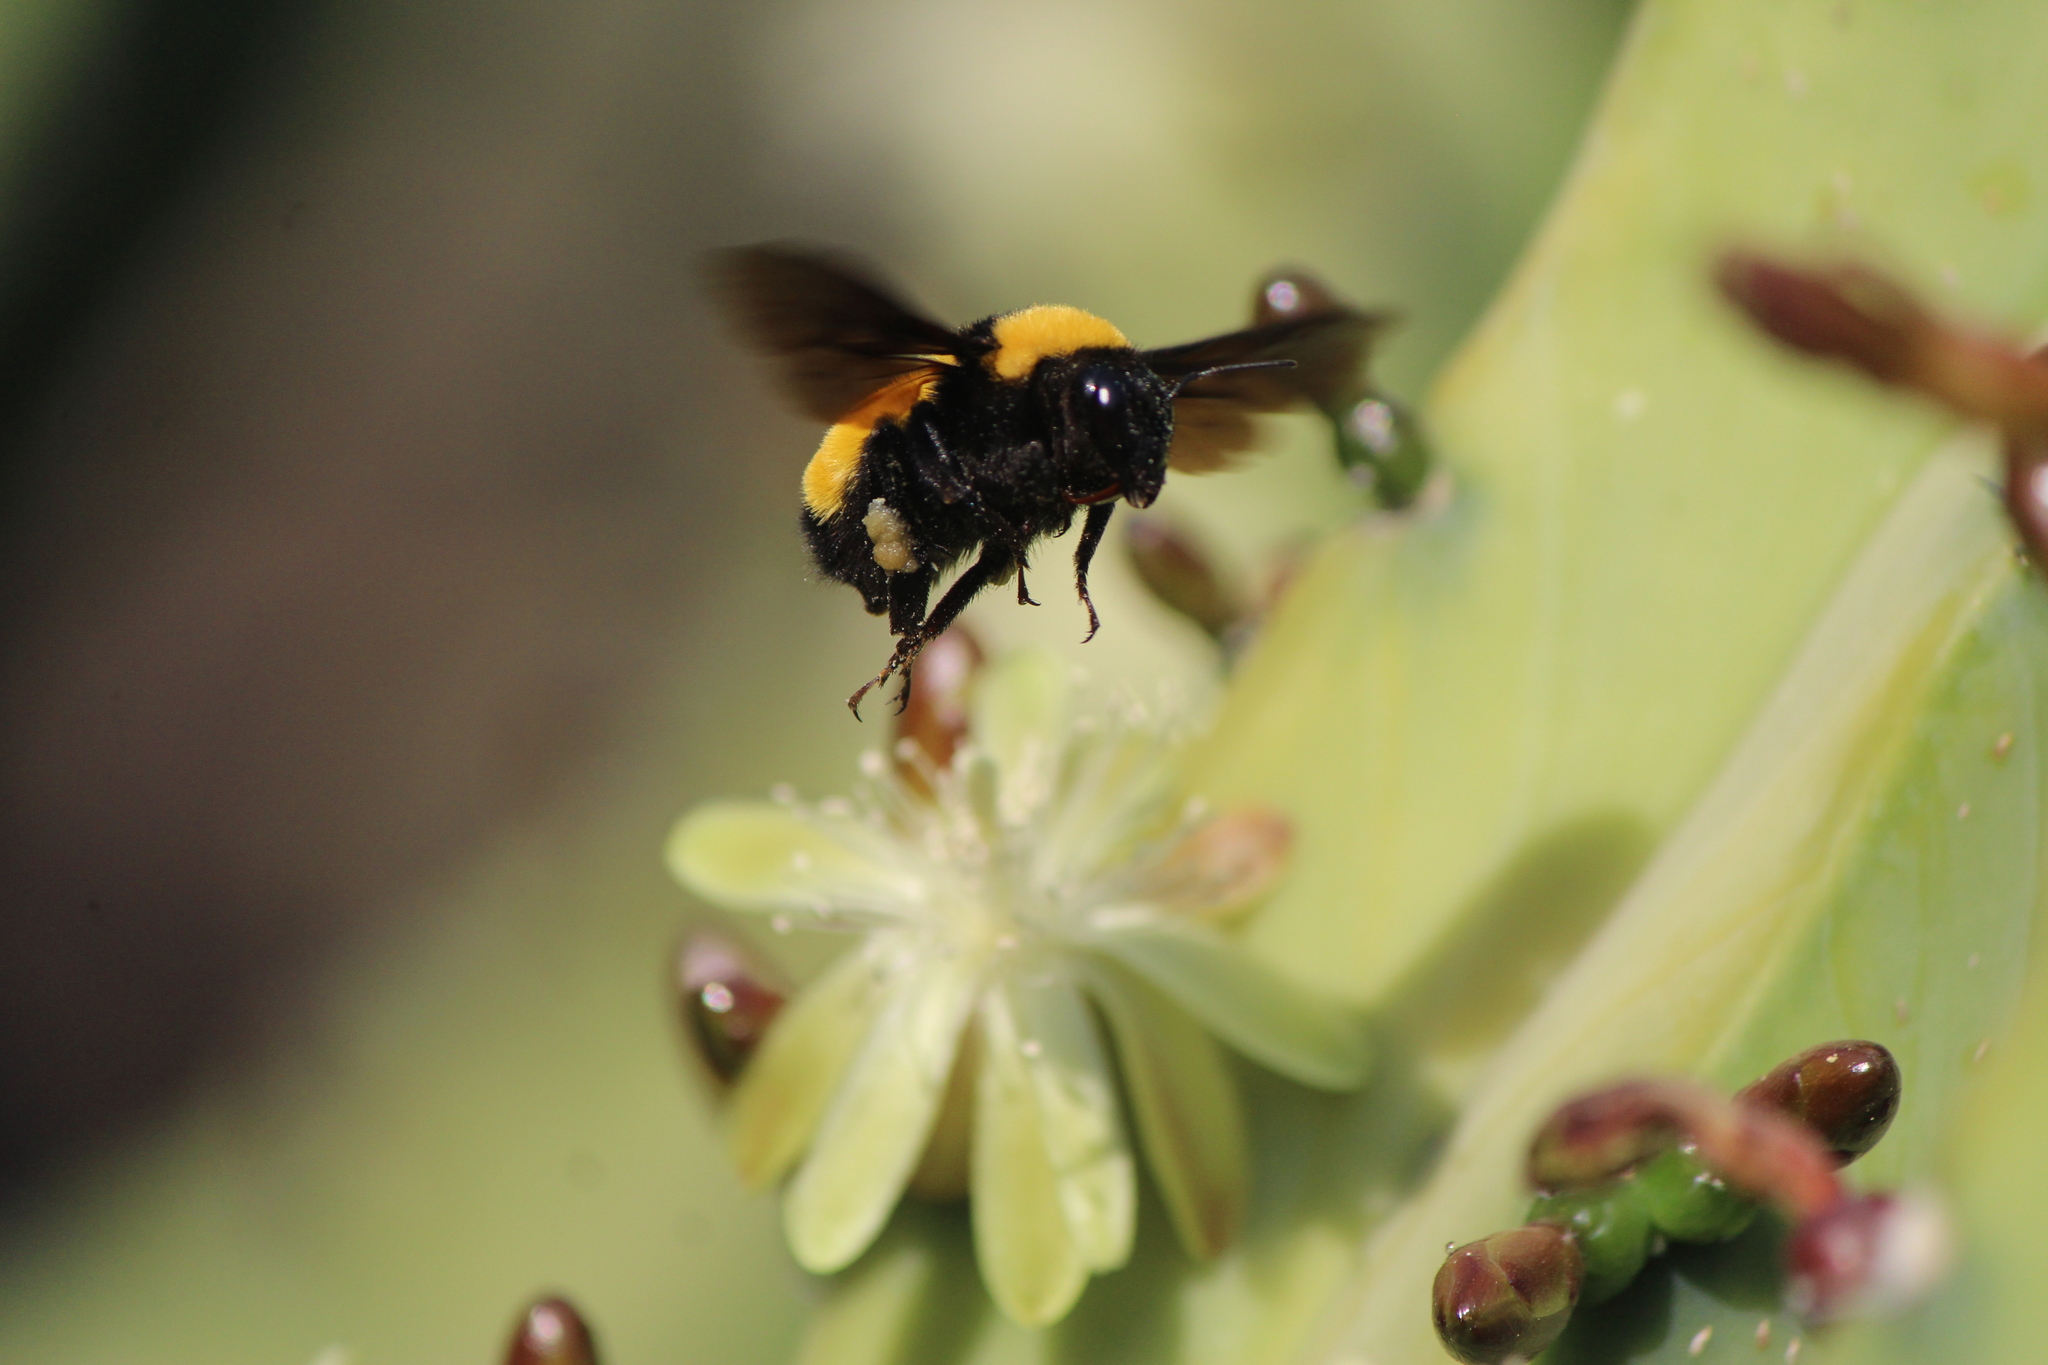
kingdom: Animalia
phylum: Arthropoda
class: Insecta
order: Hymenoptera
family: Apidae
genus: Bombus
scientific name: Bombus sonorus
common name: Sonoran bumble bee
